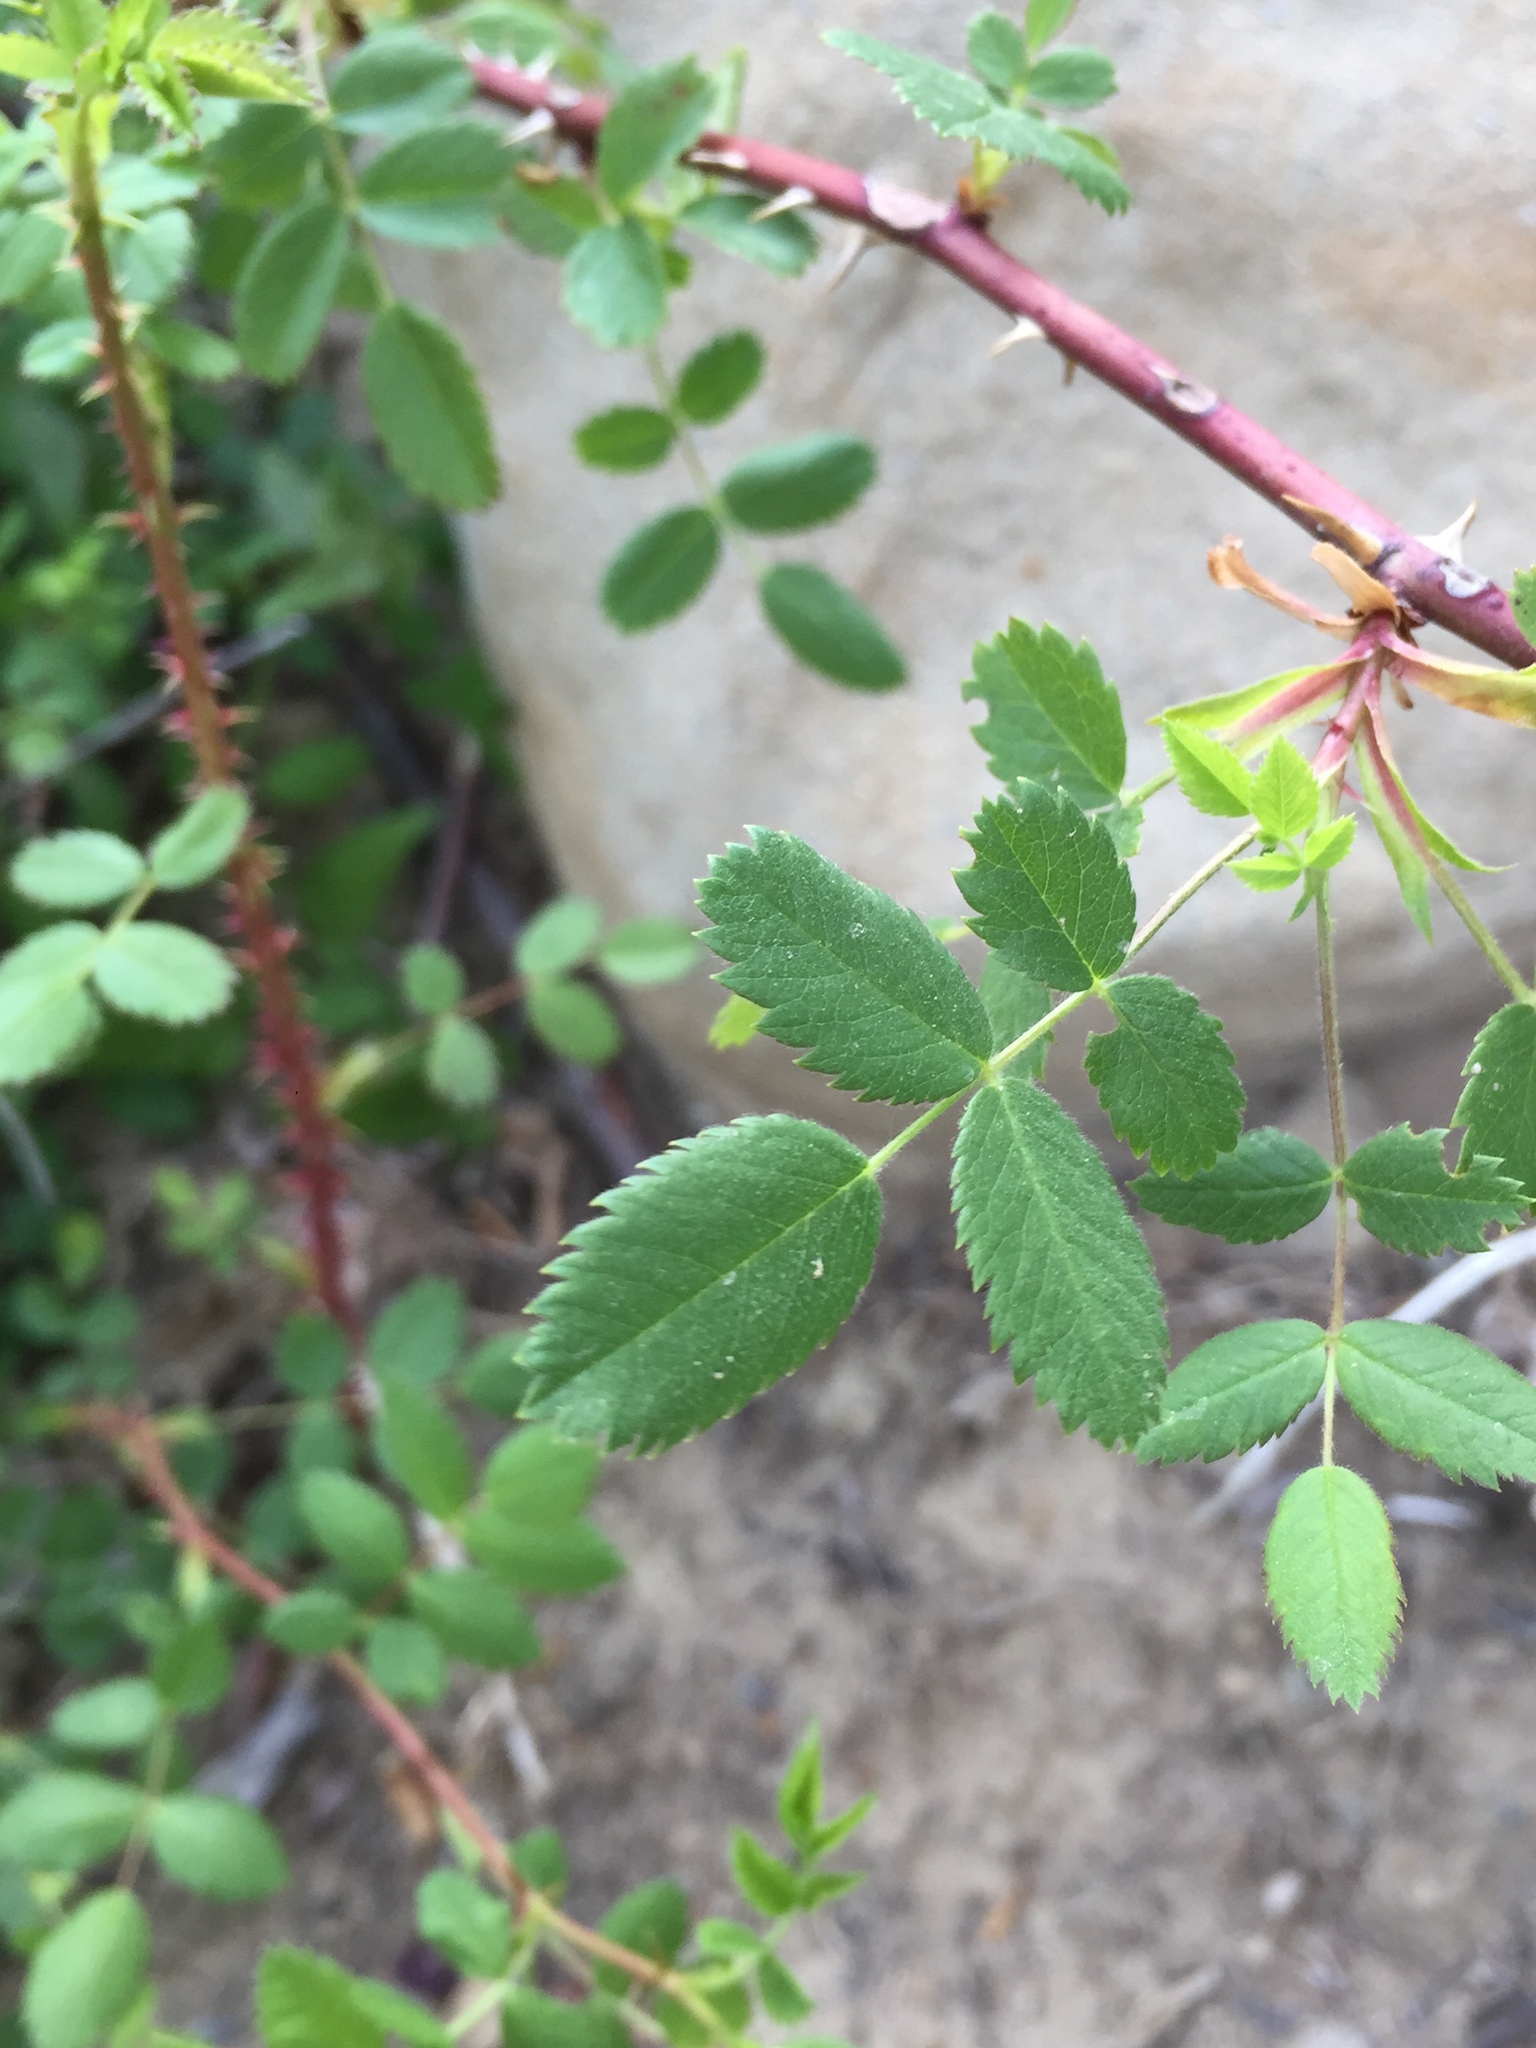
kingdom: Plantae
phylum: Tracheophyta
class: Magnoliopsida
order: Rosales
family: Rosaceae
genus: Rosa
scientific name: Rosa californica
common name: California rose
